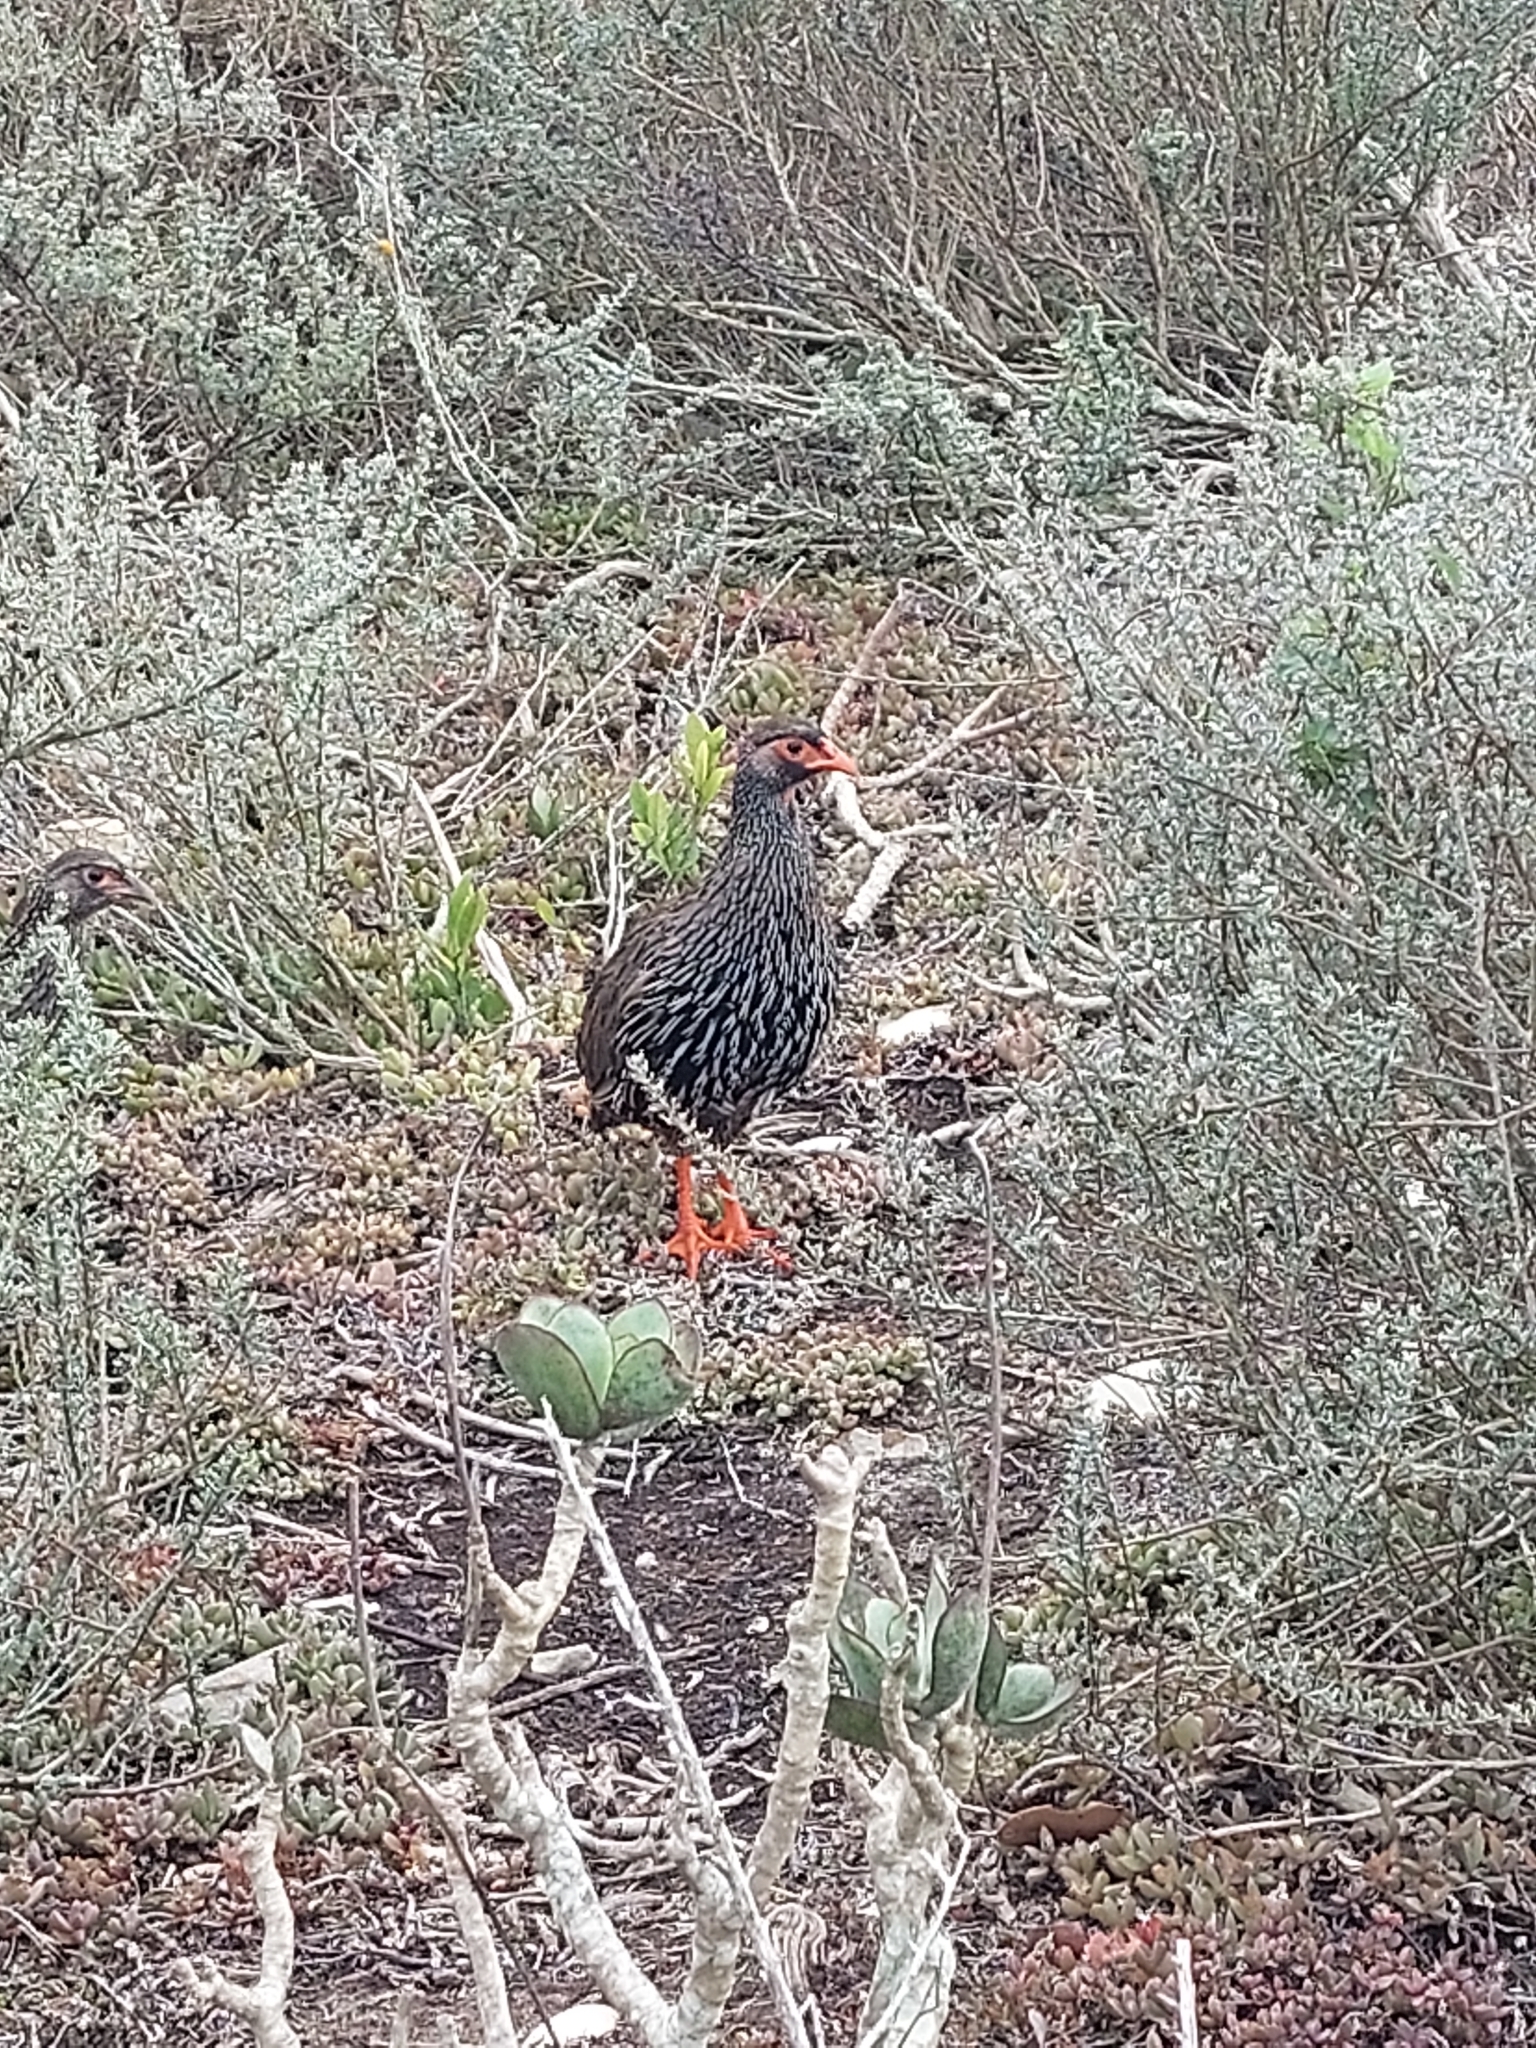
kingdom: Animalia
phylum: Chordata
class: Aves
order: Galliformes
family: Phasianidae
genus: Pternistis
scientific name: Pternistis afer
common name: Red-necked spurfowl
